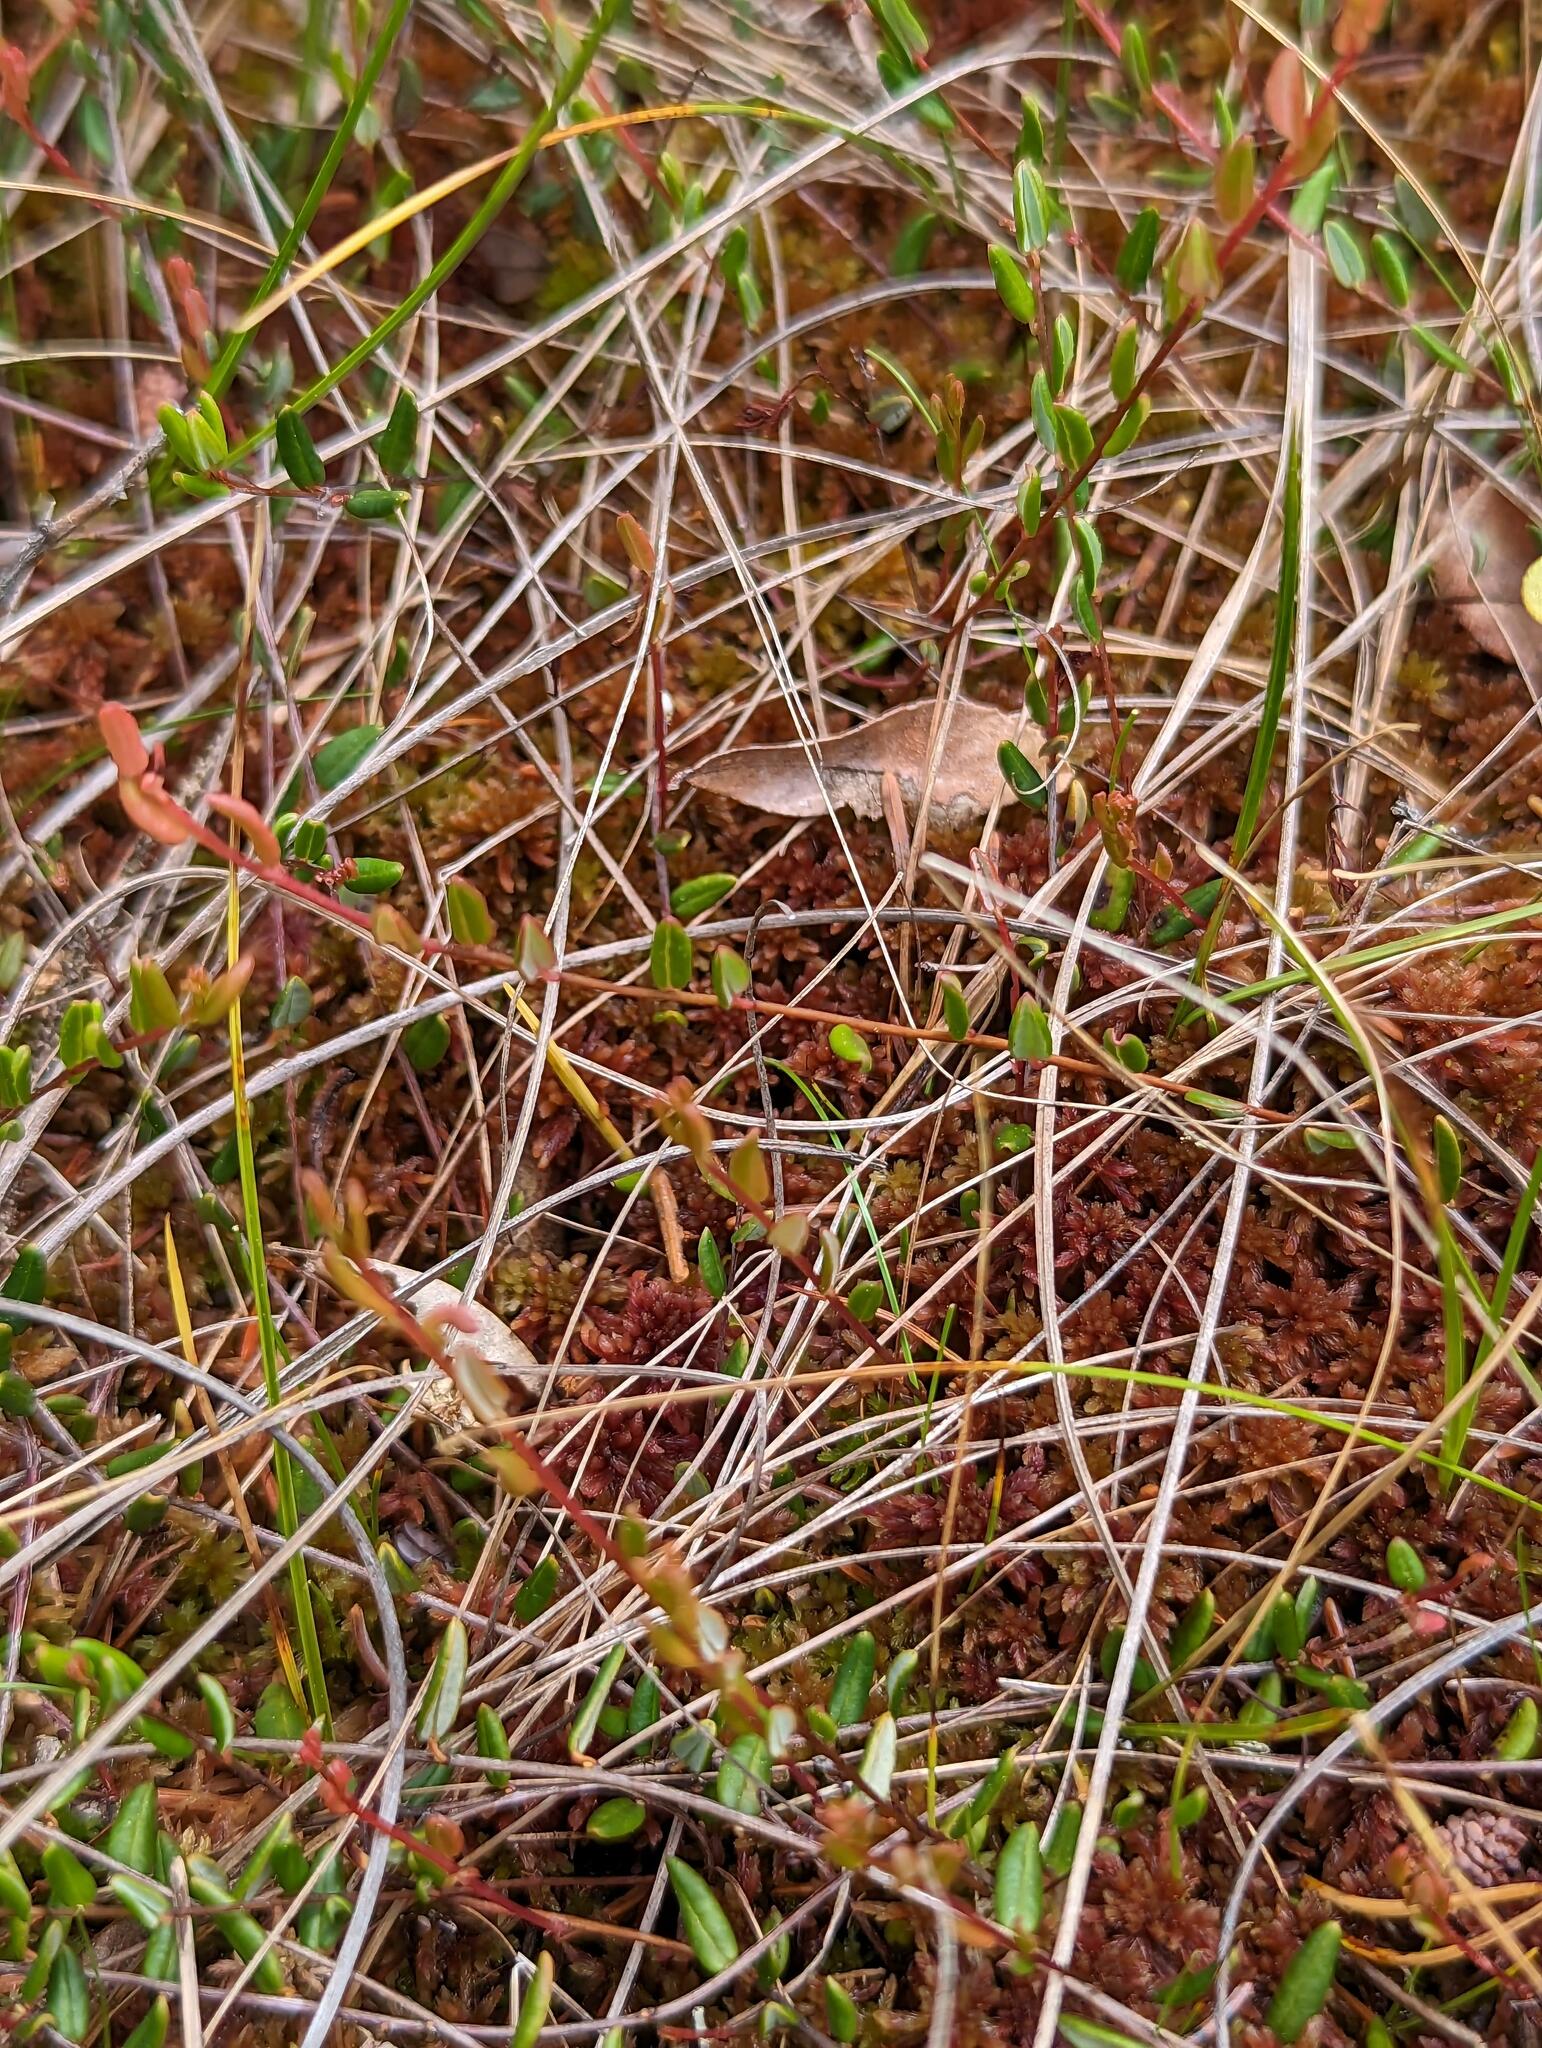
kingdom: Plantae
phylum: Tracheophyta
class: Magnoliopsida
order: Ericales
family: Ericaceae
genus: Vaccinium
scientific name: Vaccinium oxycoccos
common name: Cranberry
